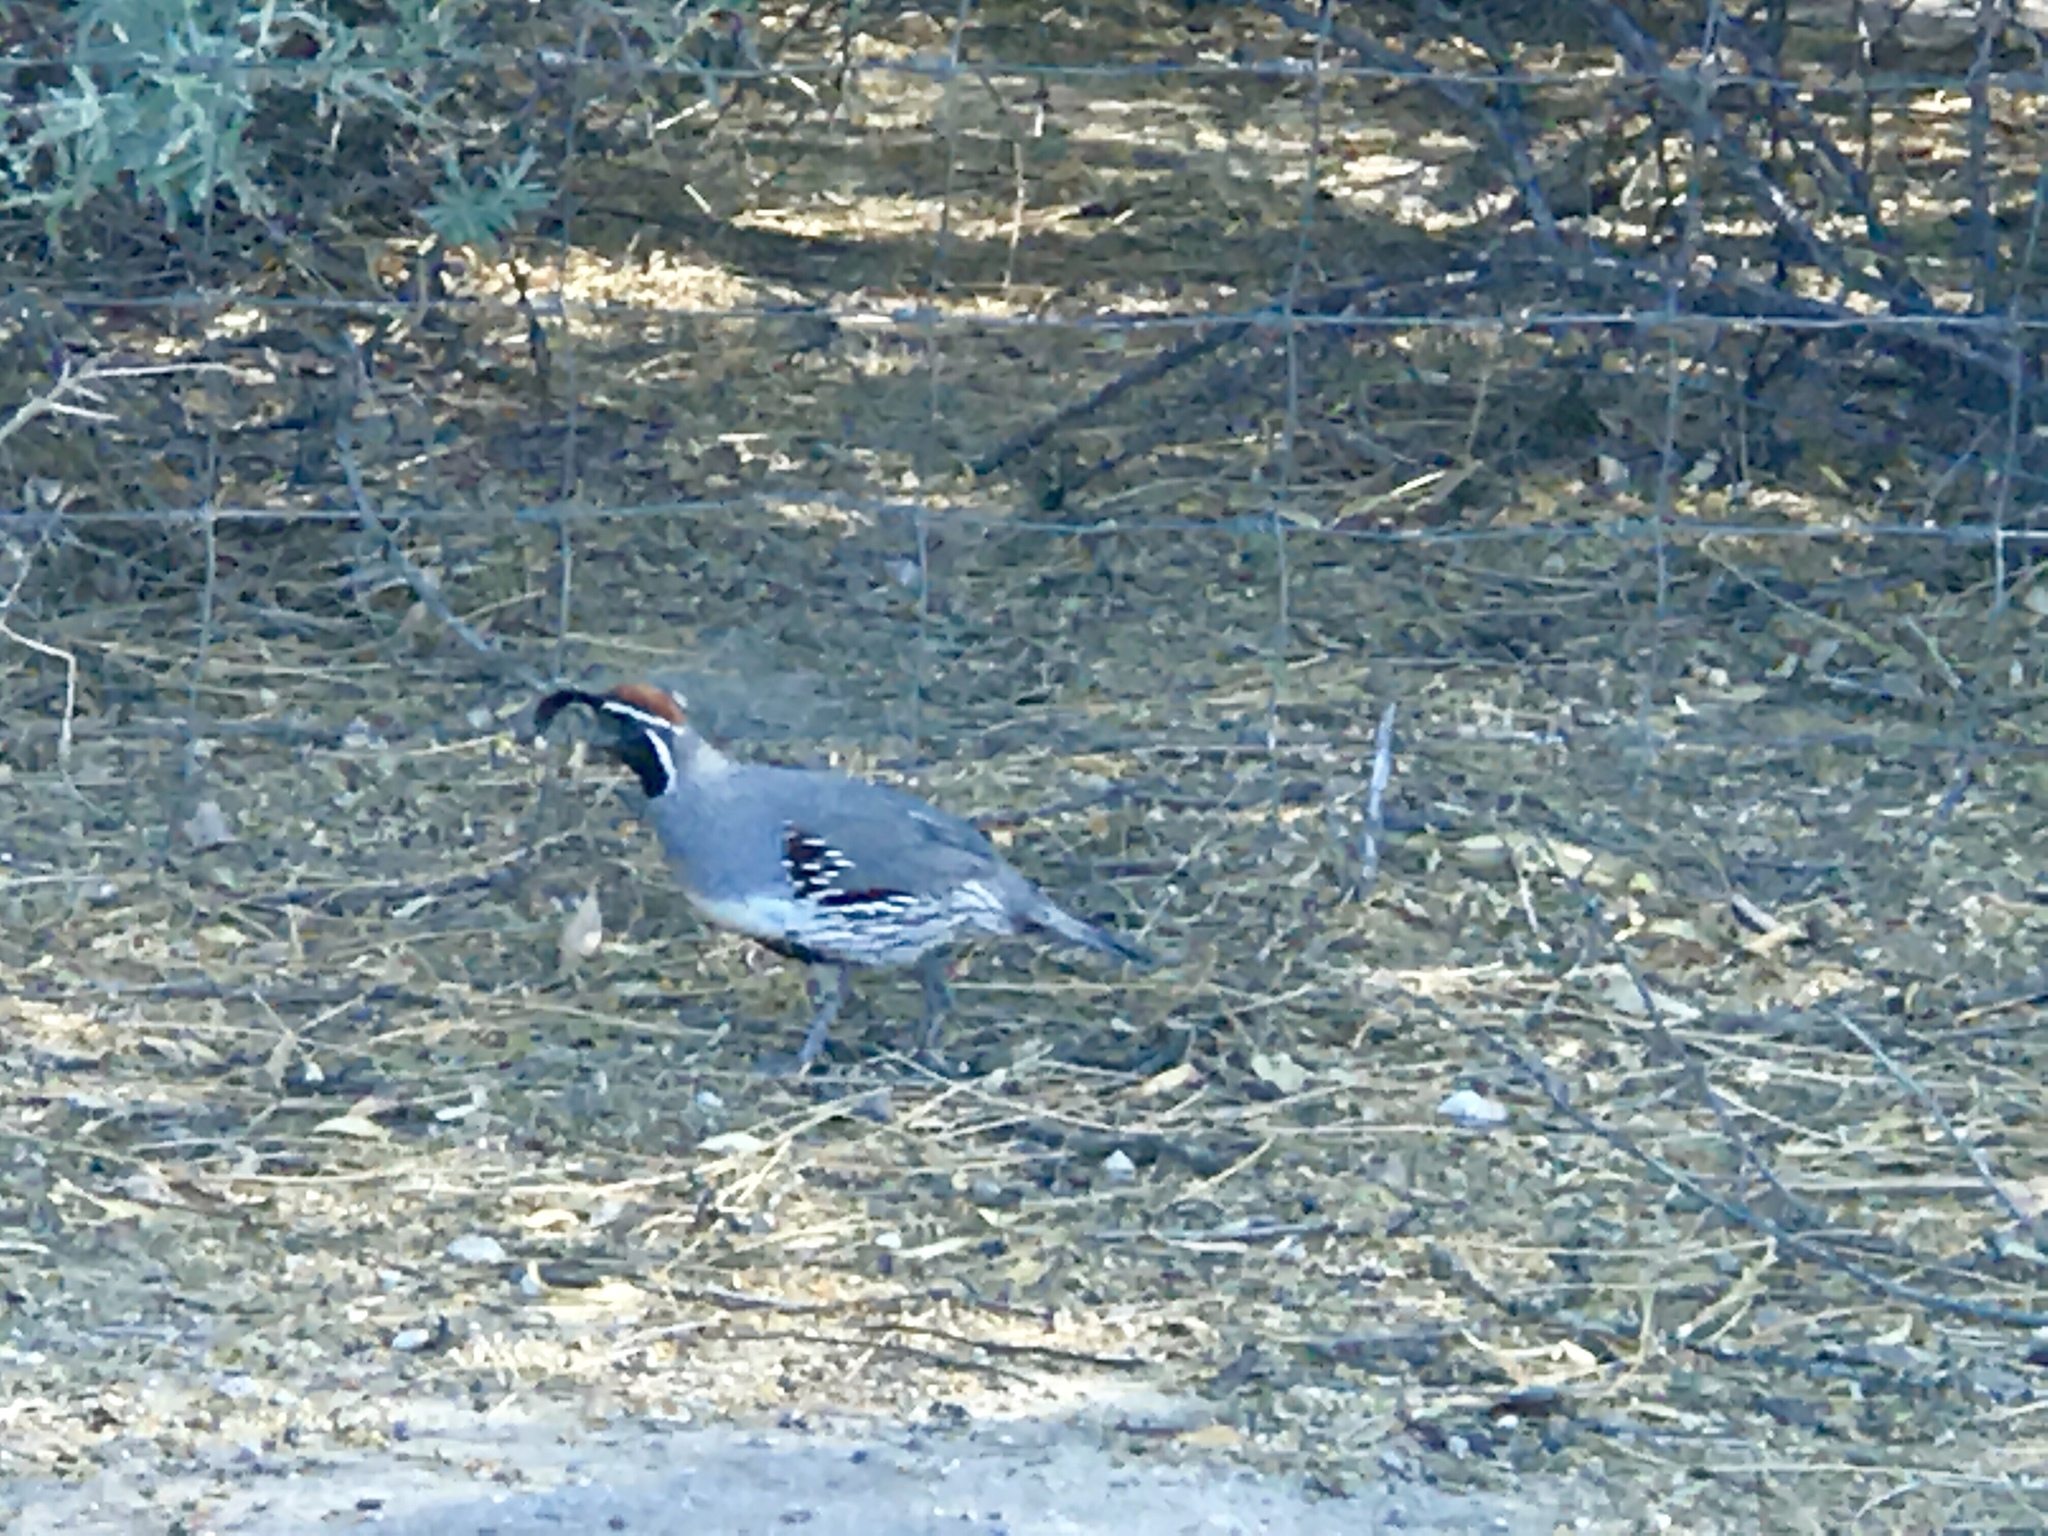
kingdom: Animalia
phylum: Chordata
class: Aves
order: Galliformes
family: Odontophoridae
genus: Callipepla
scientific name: Callipepla gambelii
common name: Gambel's quail
